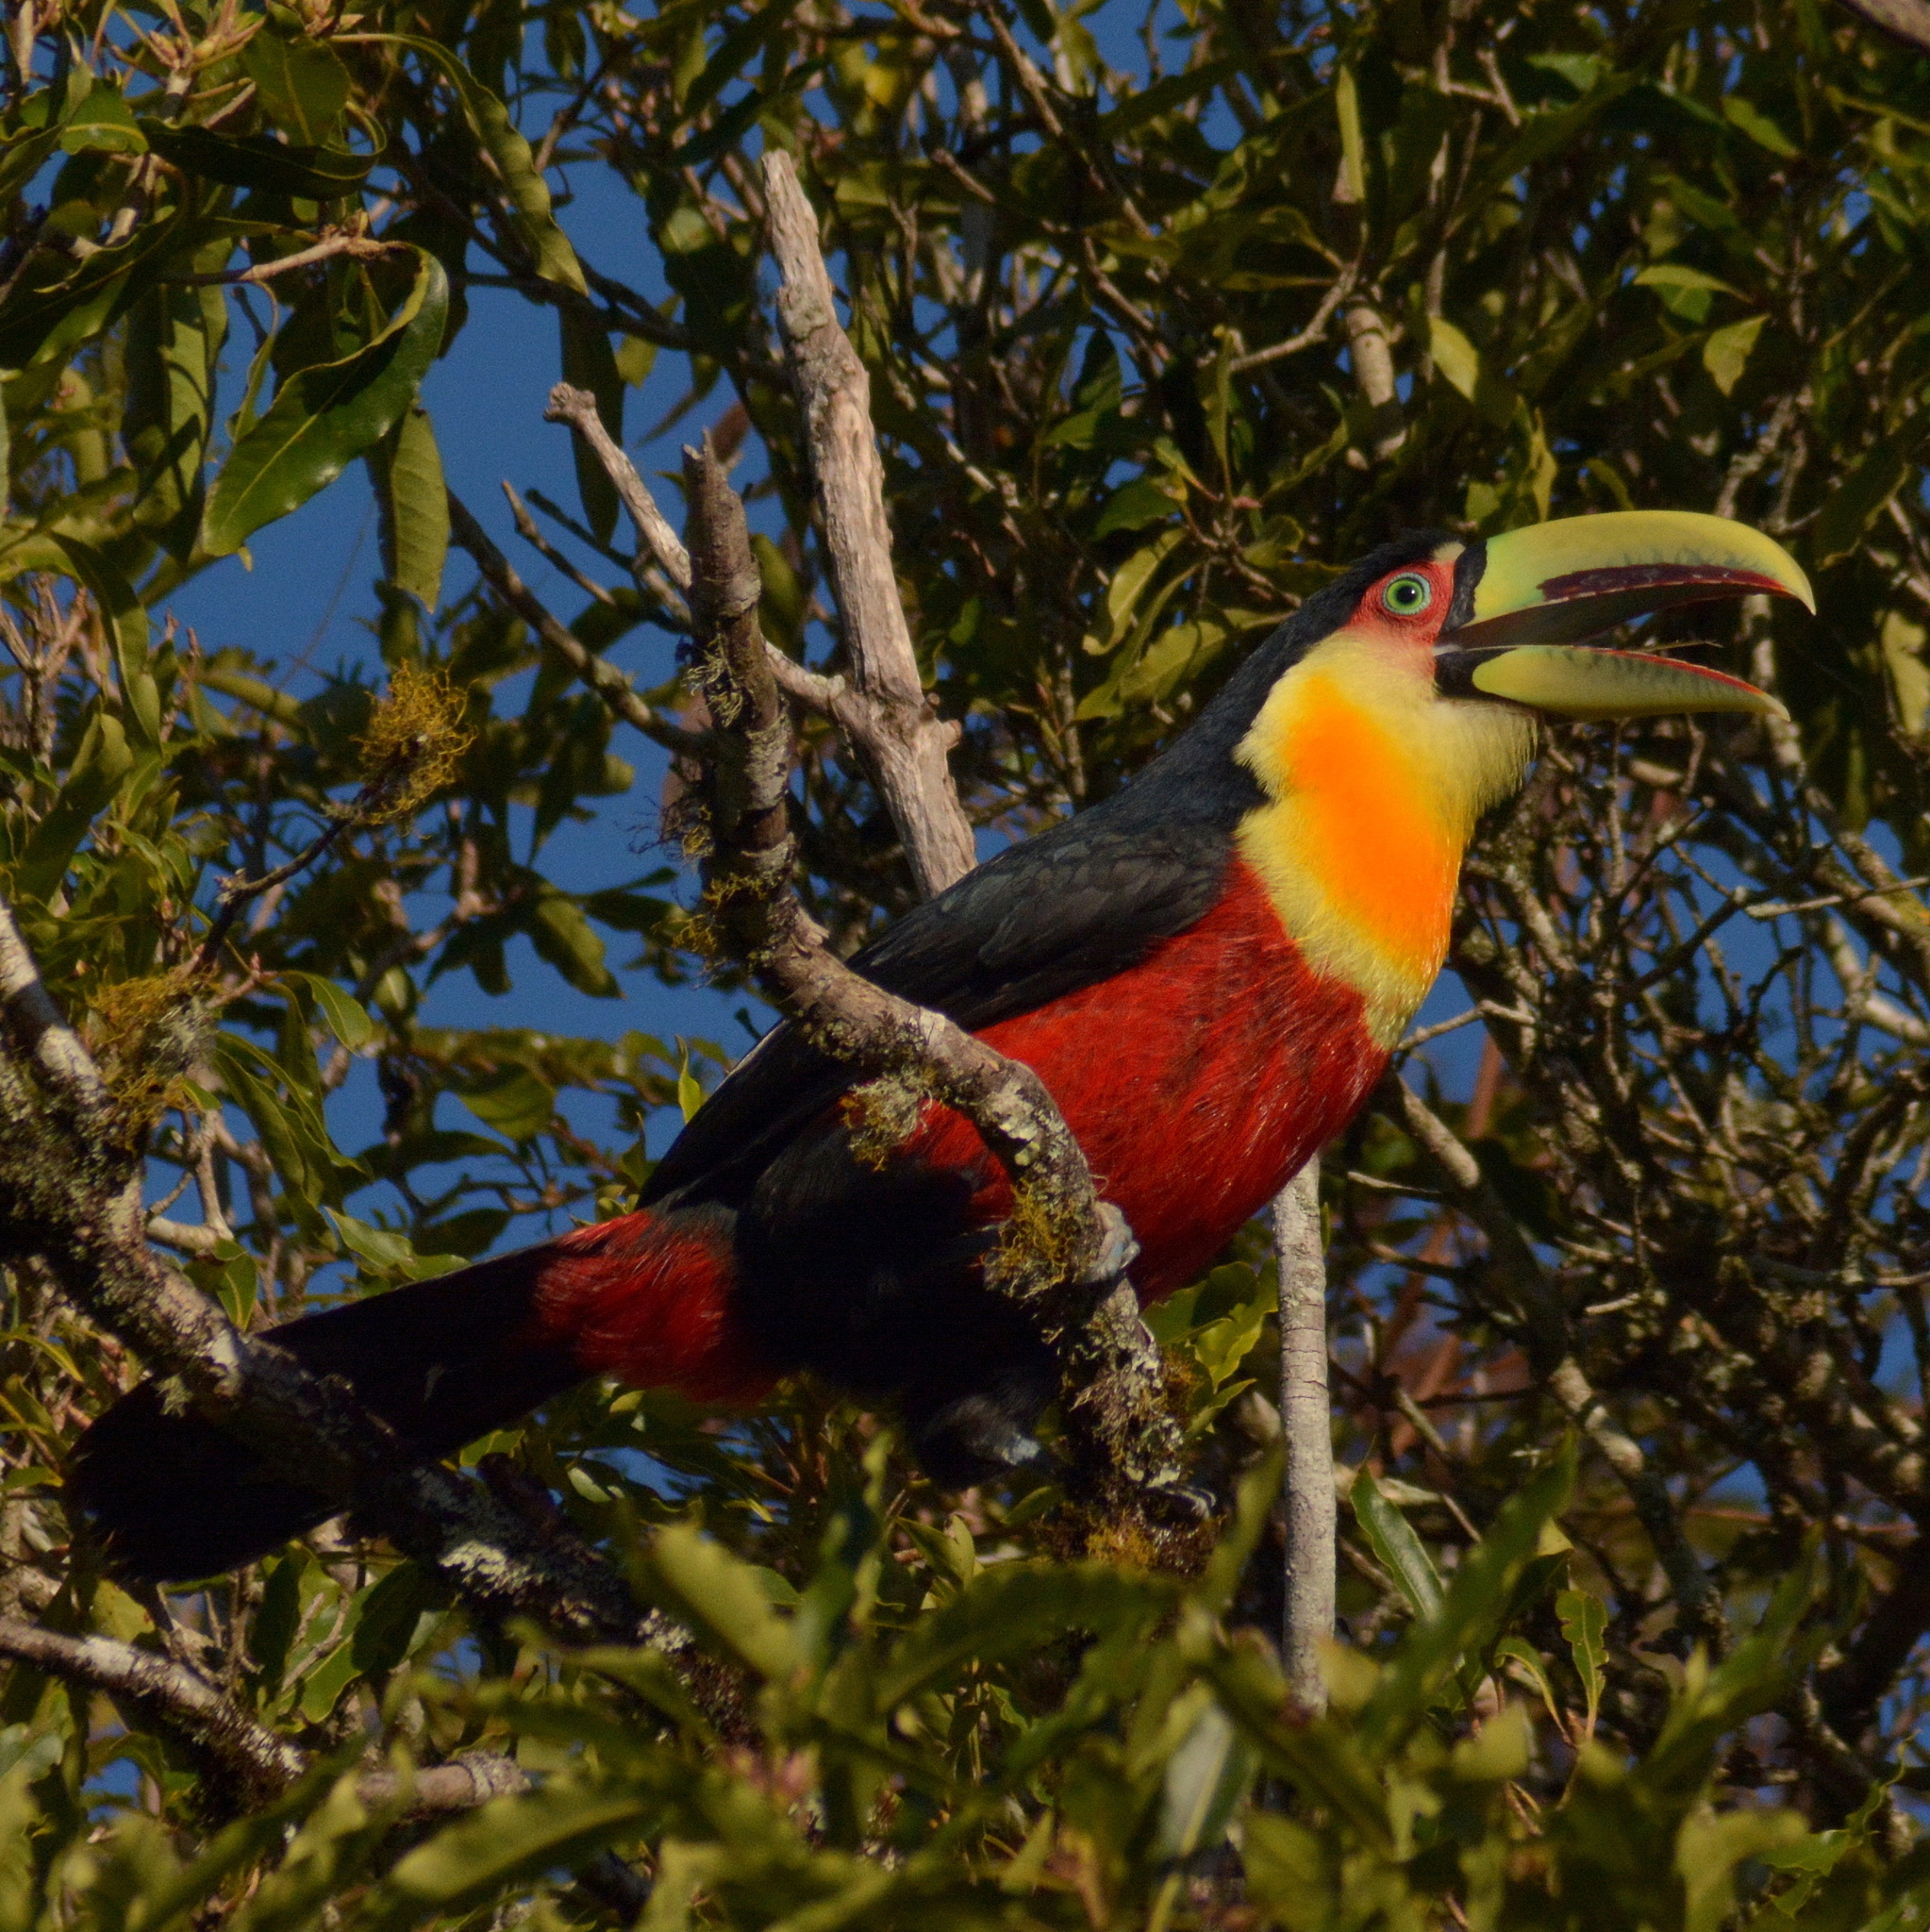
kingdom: Animalia
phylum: Chordata
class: Aves
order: Piciformes
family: Ramphastidae
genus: Ramphastos
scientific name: Ramphastos dicolorus
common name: Green-billed toucan
